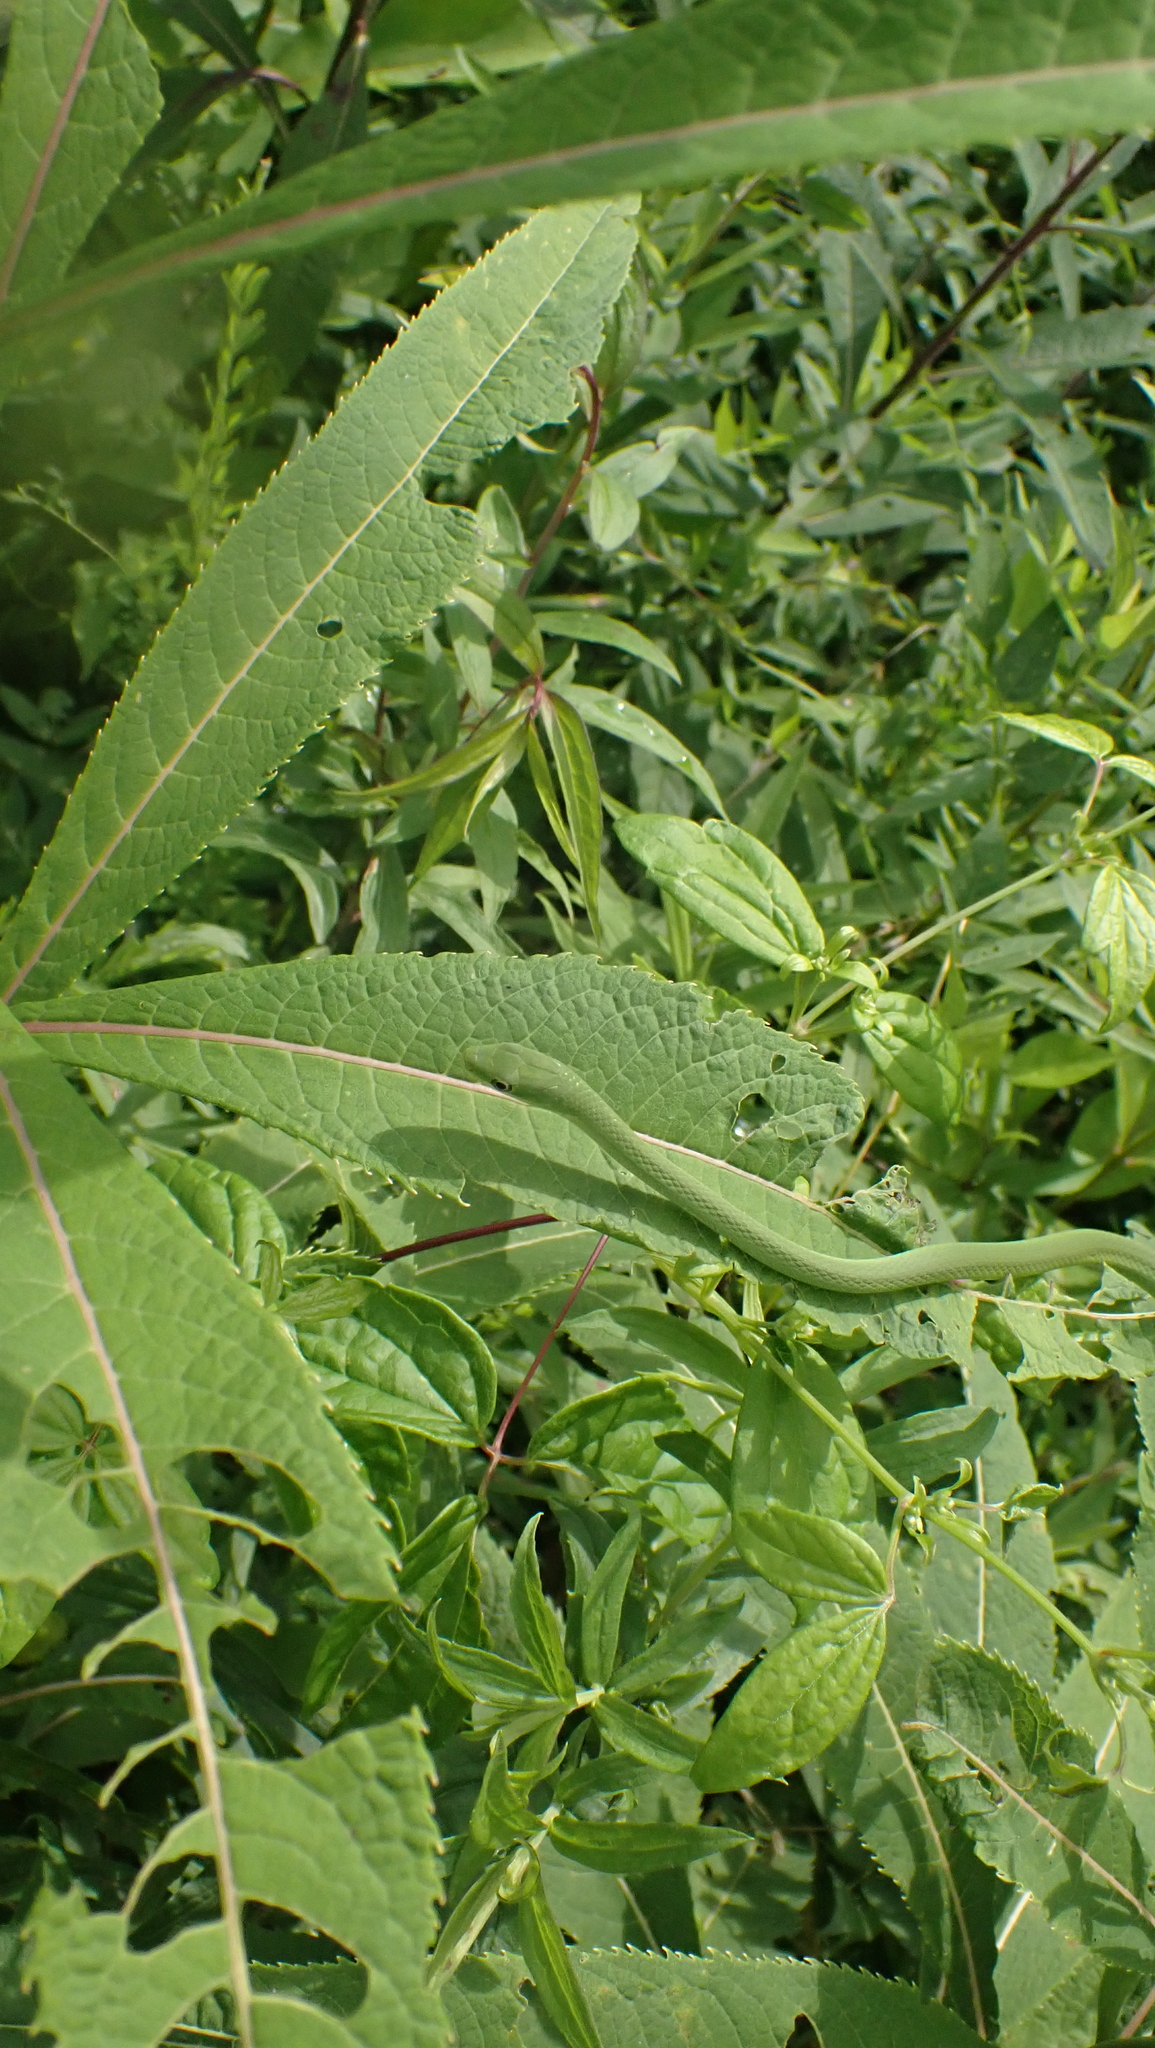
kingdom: Animalia
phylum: Chordata
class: Squamata
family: Colubridae
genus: Opheodrys
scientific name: Opheodrys aestivus
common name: Rough greensnake
